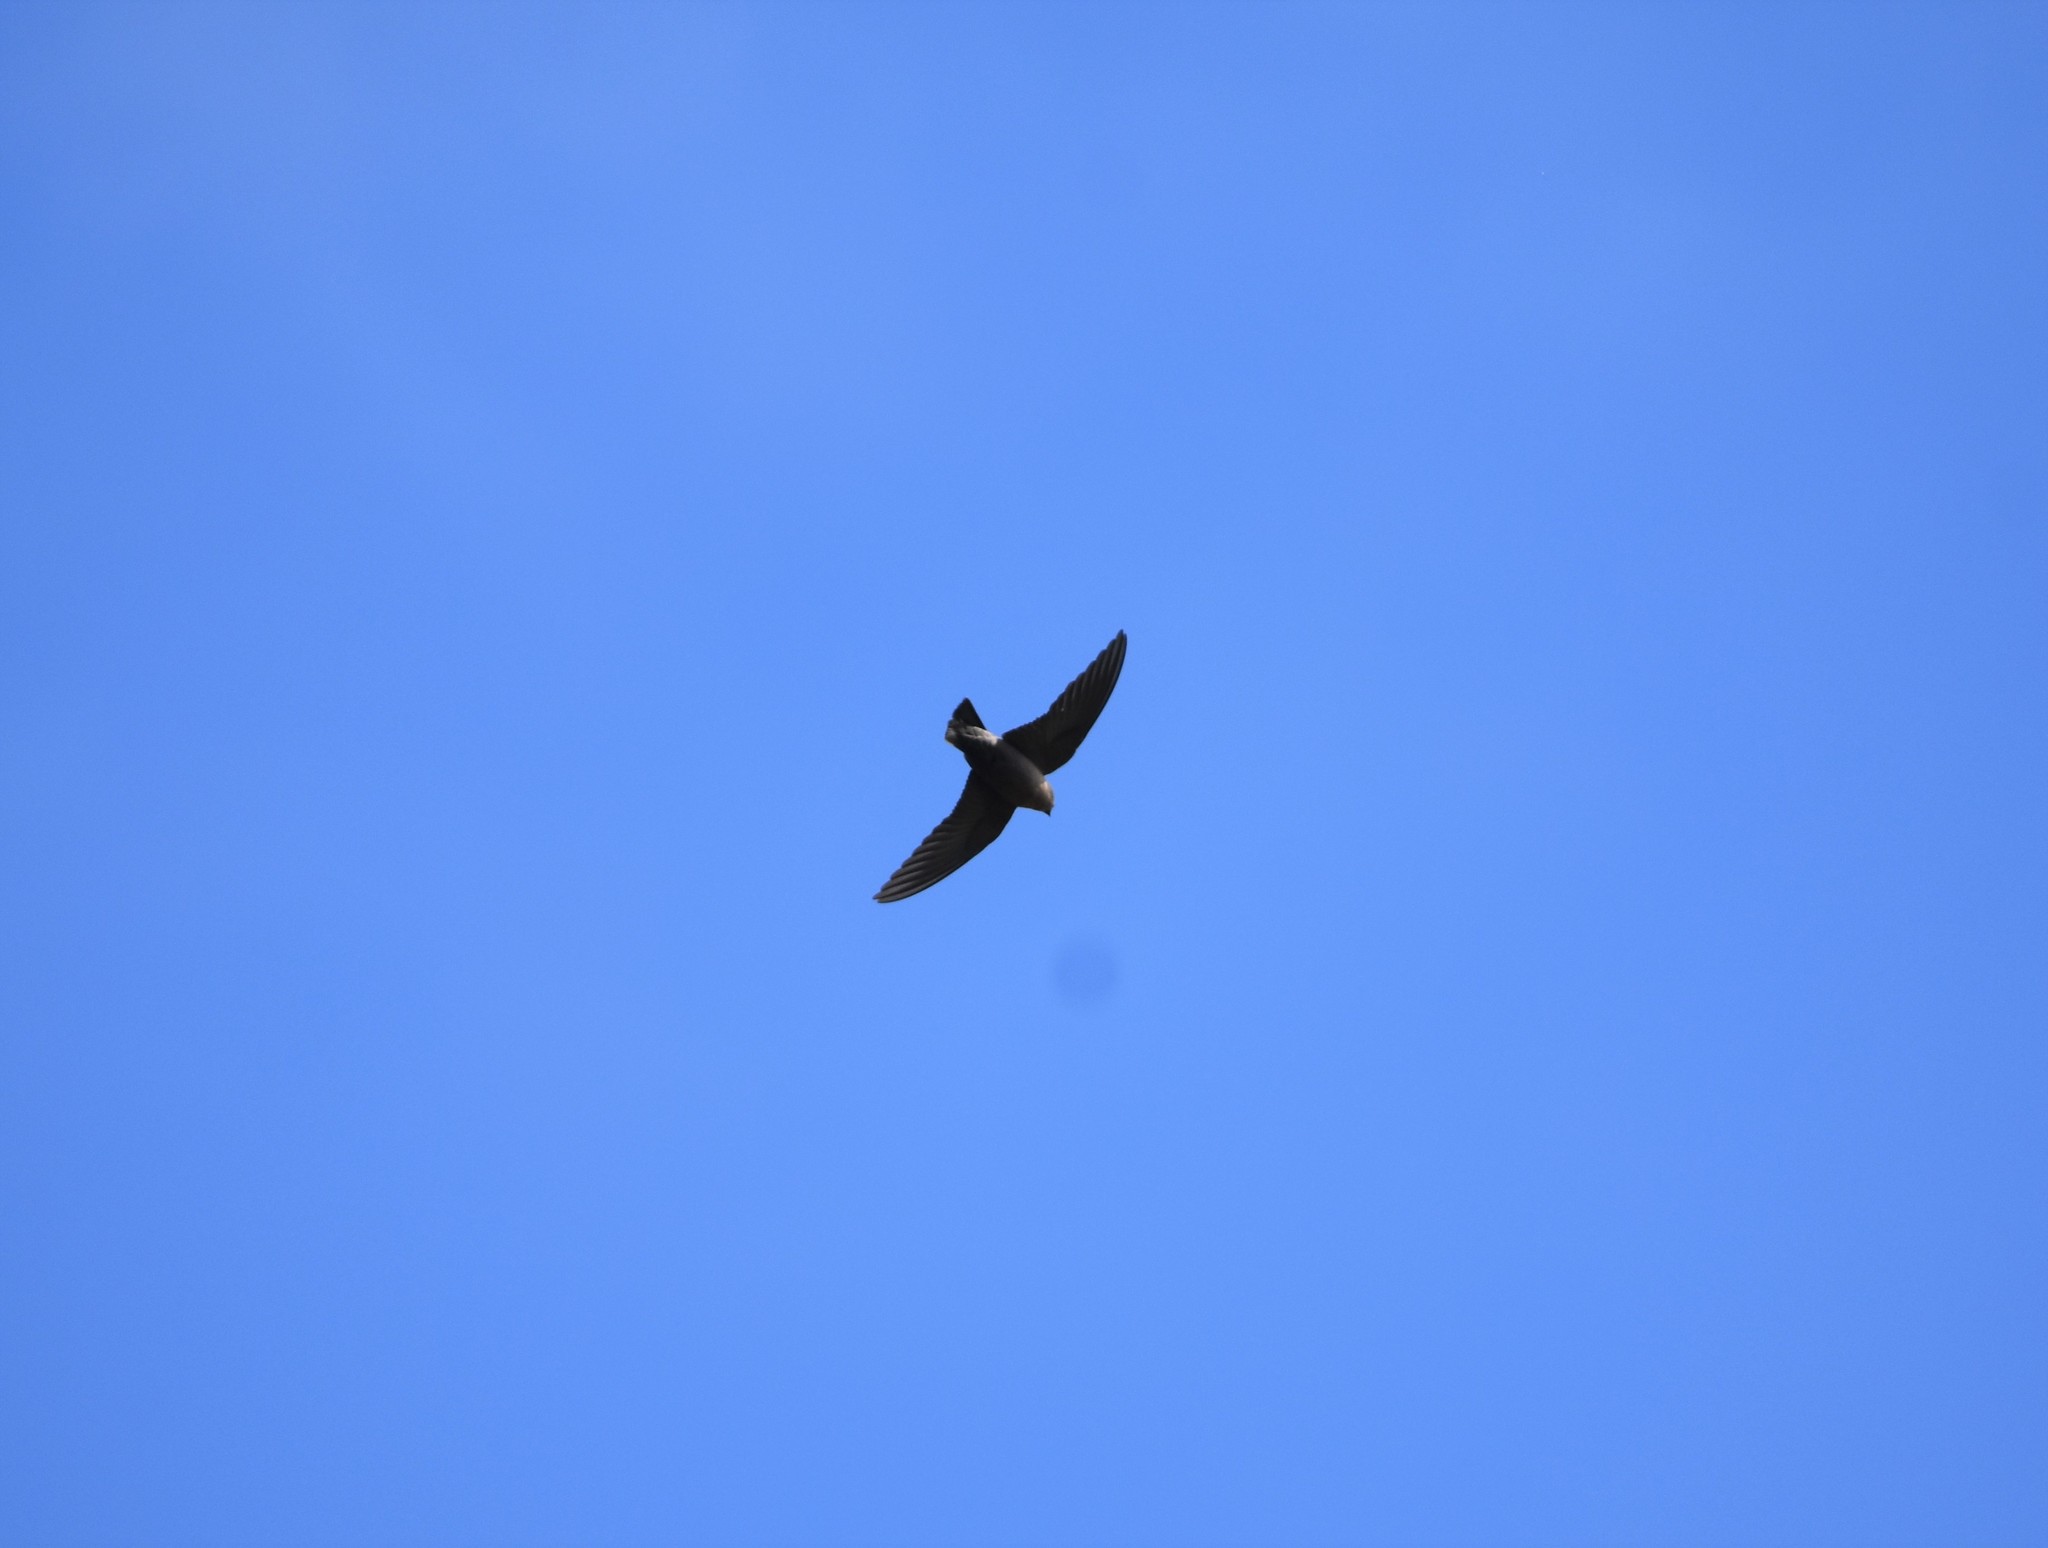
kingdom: Animalia
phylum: Chordata
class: Aves
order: Passeriformes
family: Hirundinidae
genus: Ptyonoprogne
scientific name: Ptyonoprogne fuligula
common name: Rock martin
